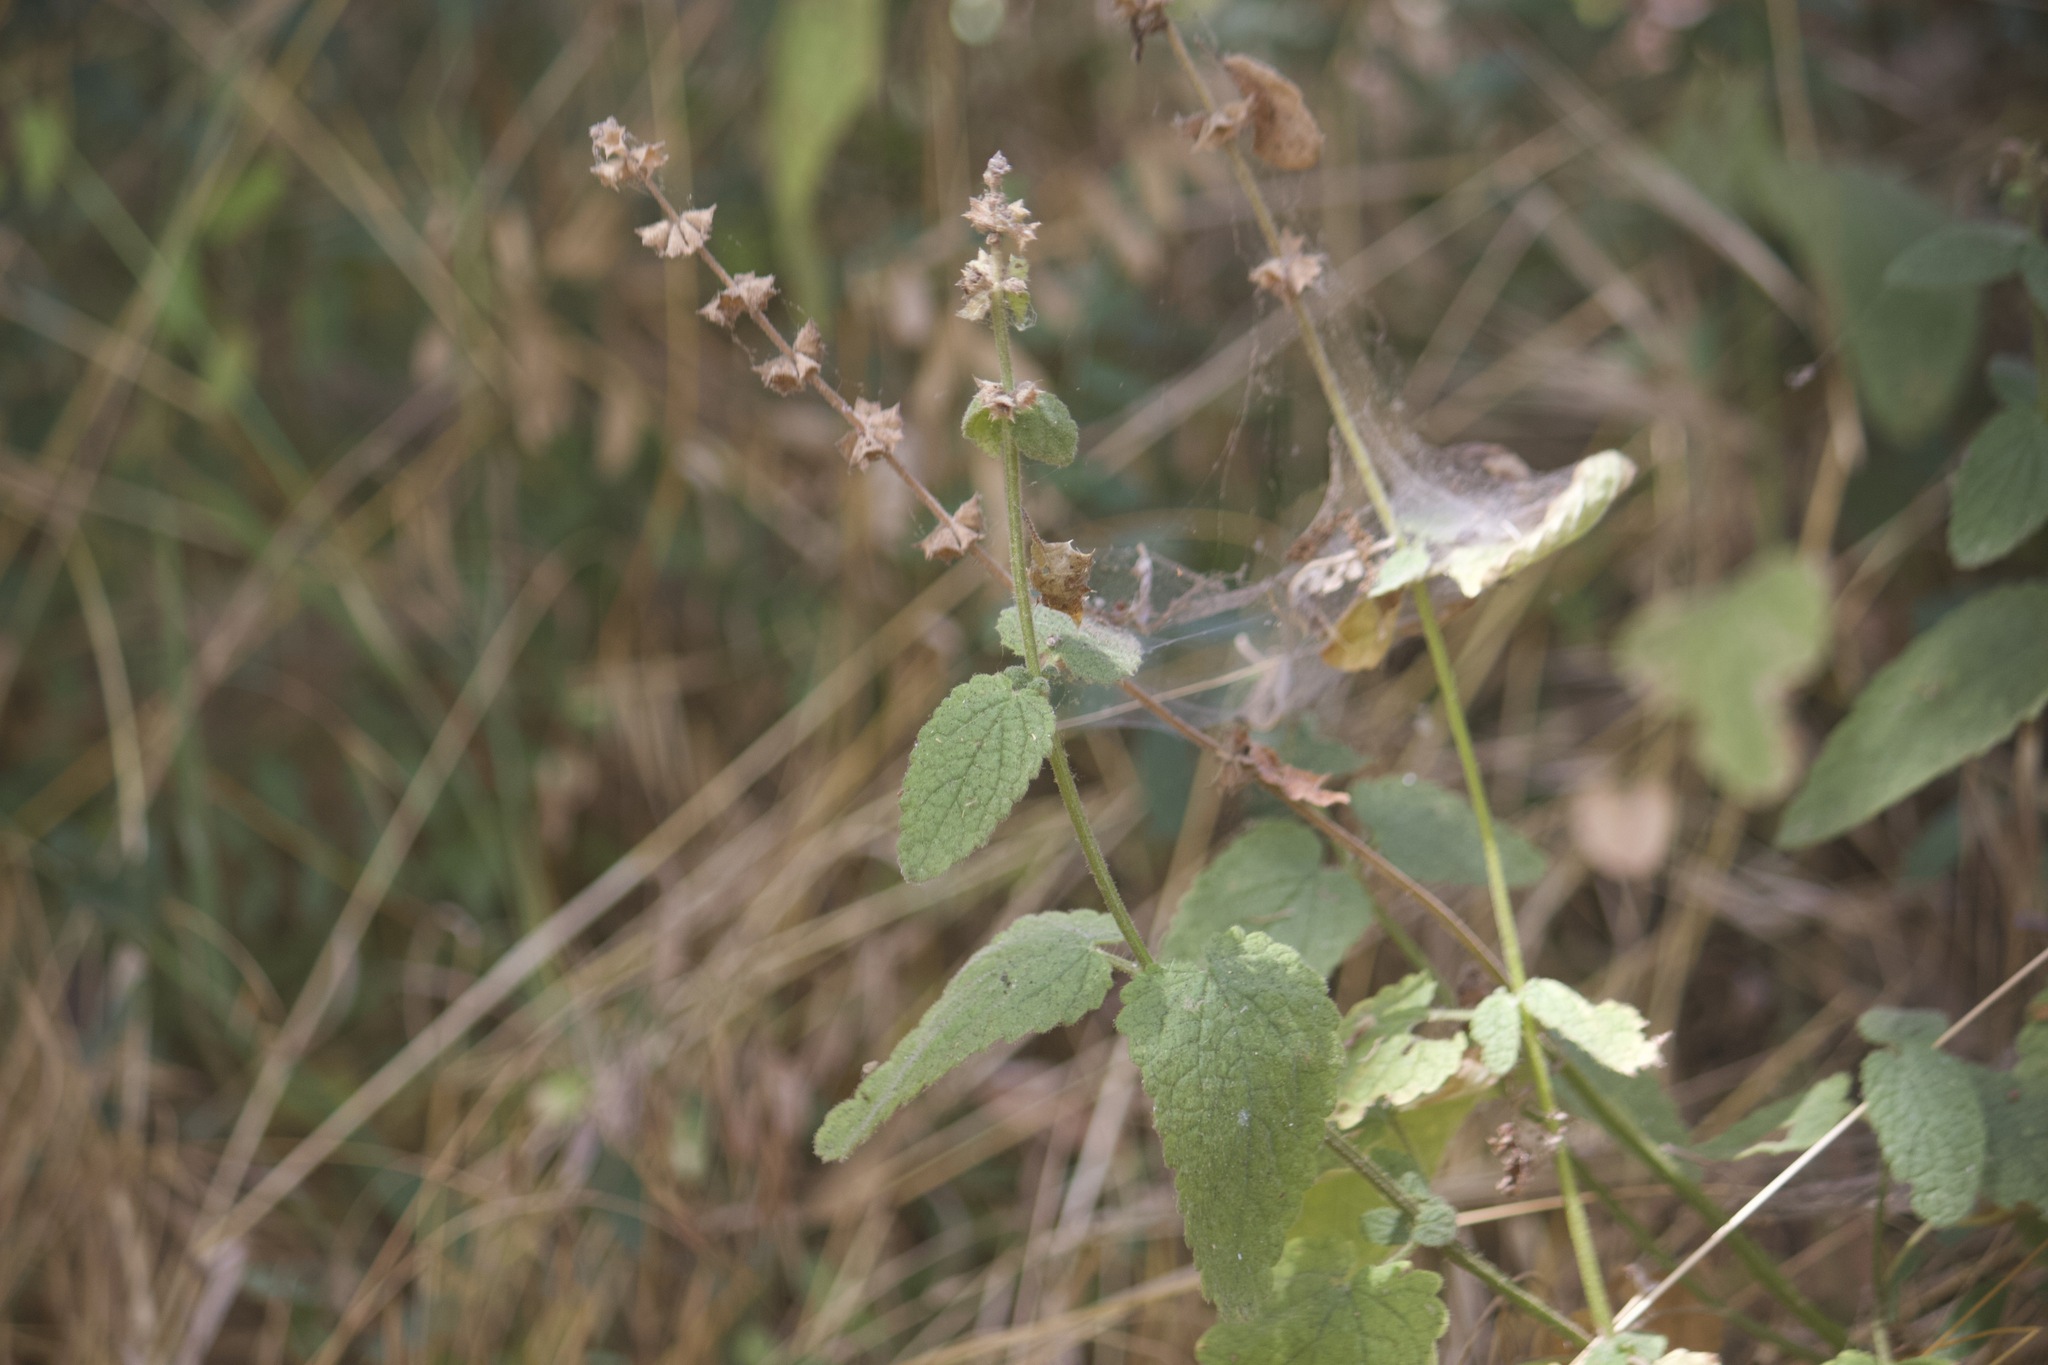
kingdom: Plantae
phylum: Tracheophyta
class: Magnoliopsida
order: Lamiales
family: Lamiaceae
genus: Stachys
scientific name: Stachys bullata
